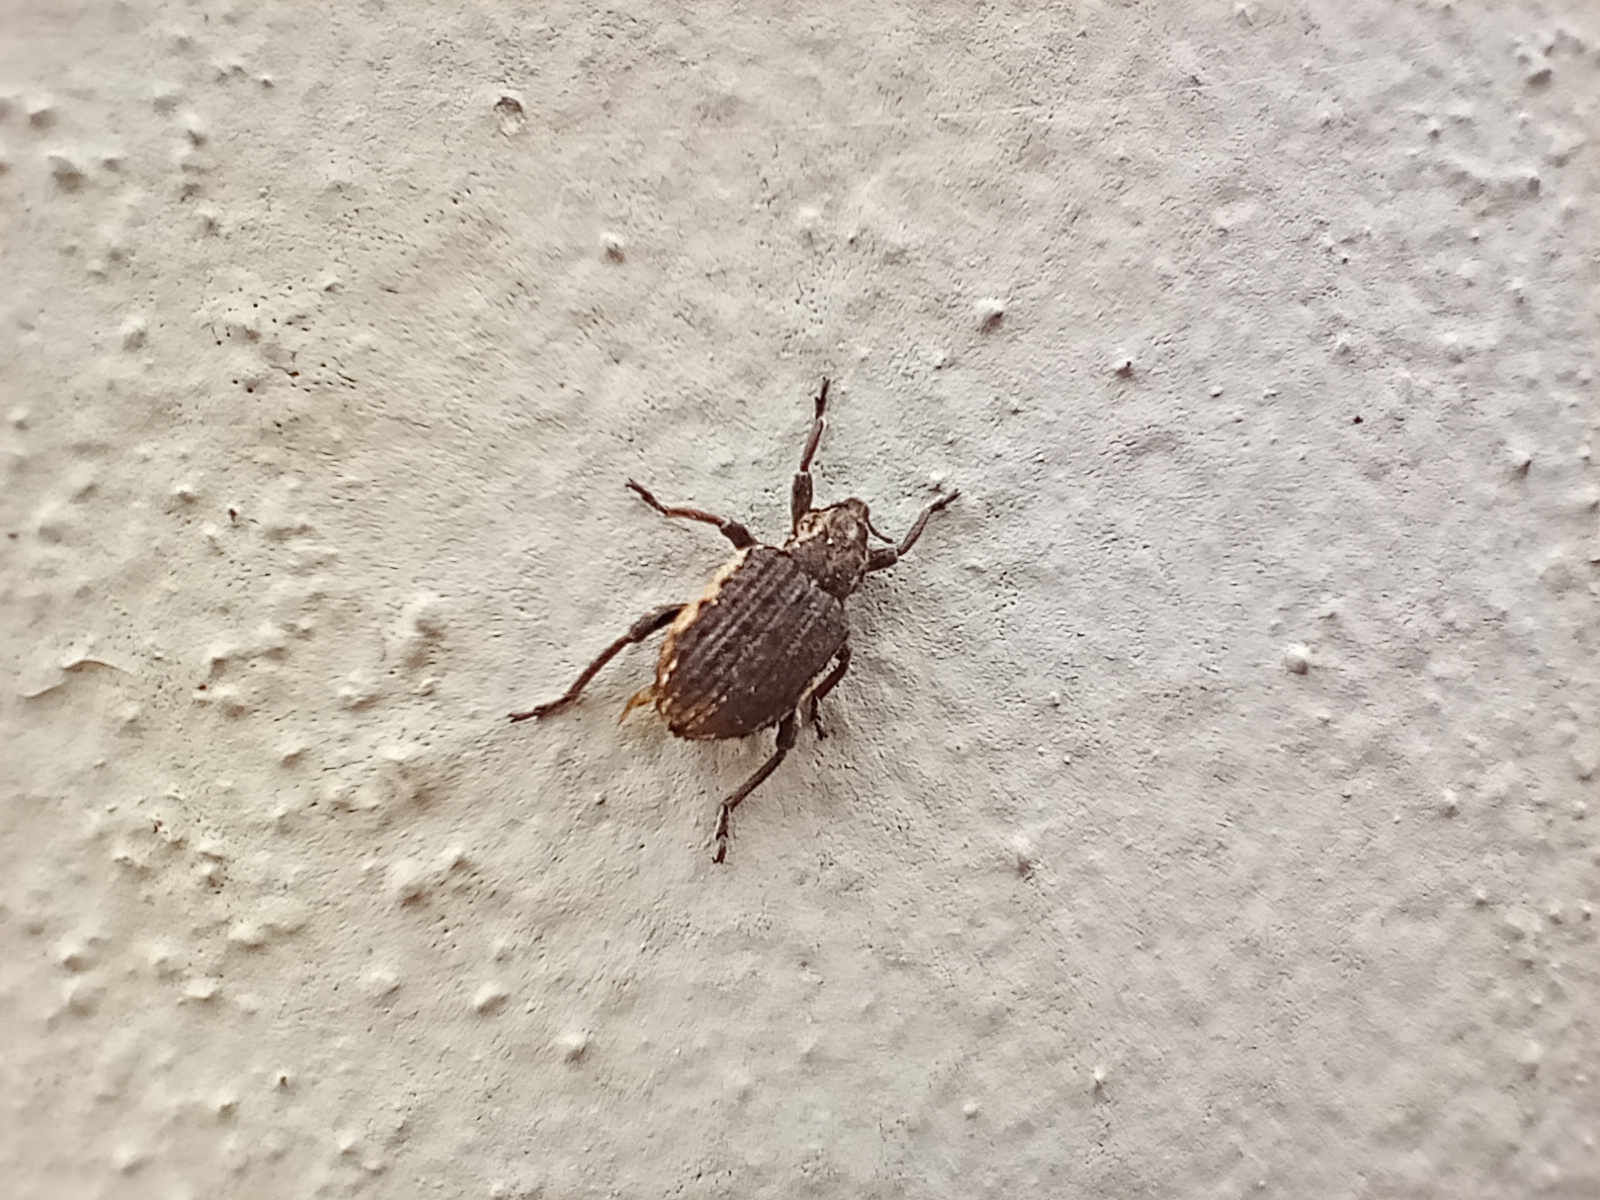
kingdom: Animalia
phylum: Arthropoda
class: Insecta
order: Coleoptera
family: Curculionidae
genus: Brachypera
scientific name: Brachypera zoilus
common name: Clover leaf weevil
